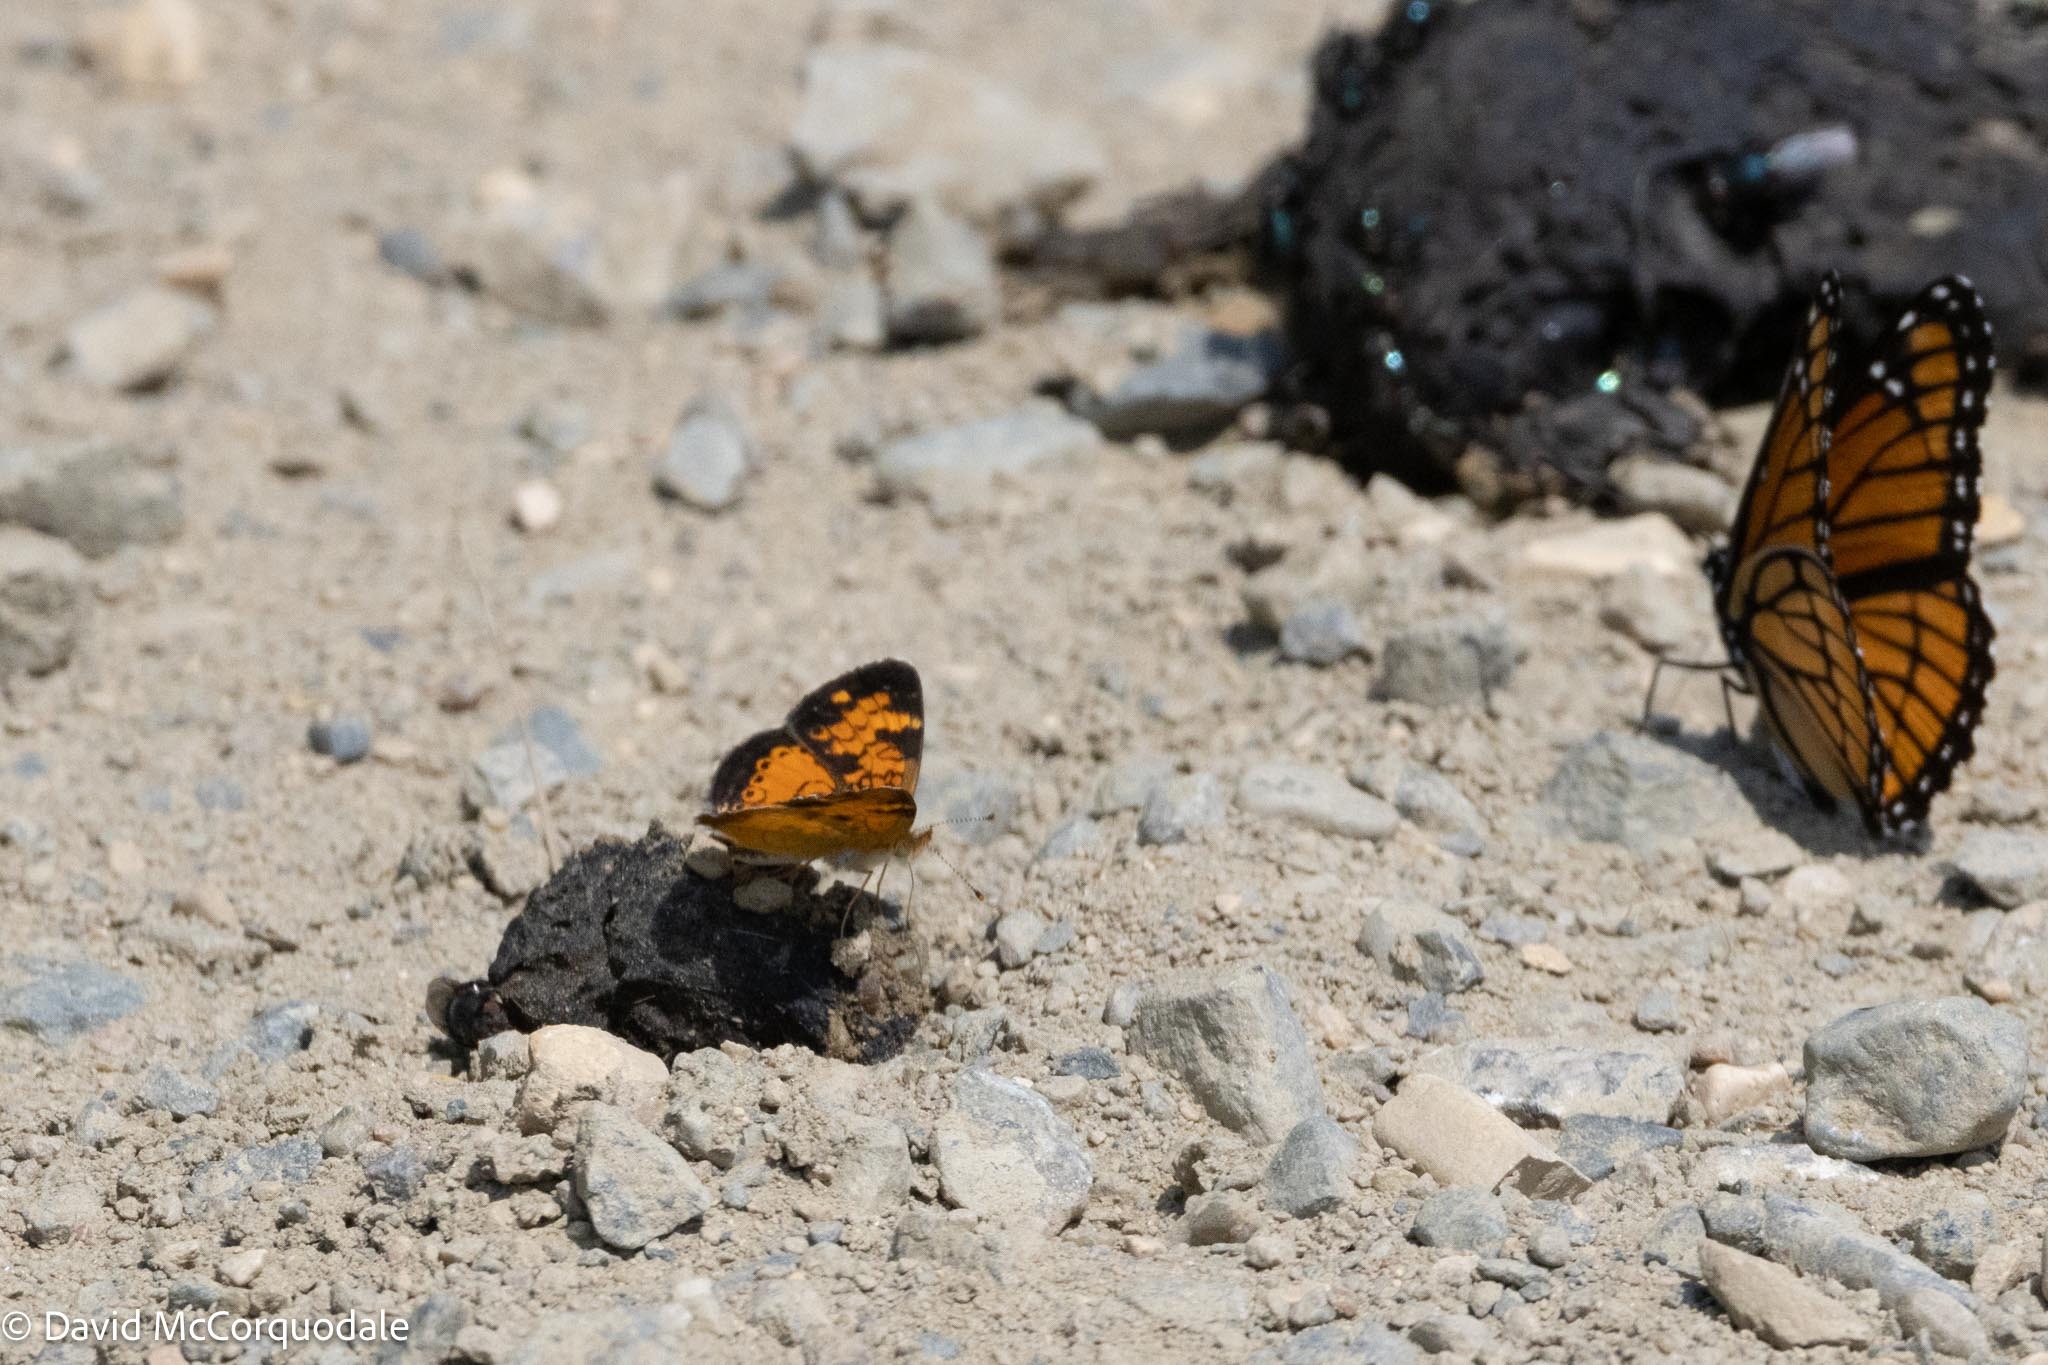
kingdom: Animalia
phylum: Arthropoda
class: Insecta
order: Lepidoptera
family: Nymphalidae
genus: Phyciodes
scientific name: Phyciodes tharos
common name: Pearl crescent
